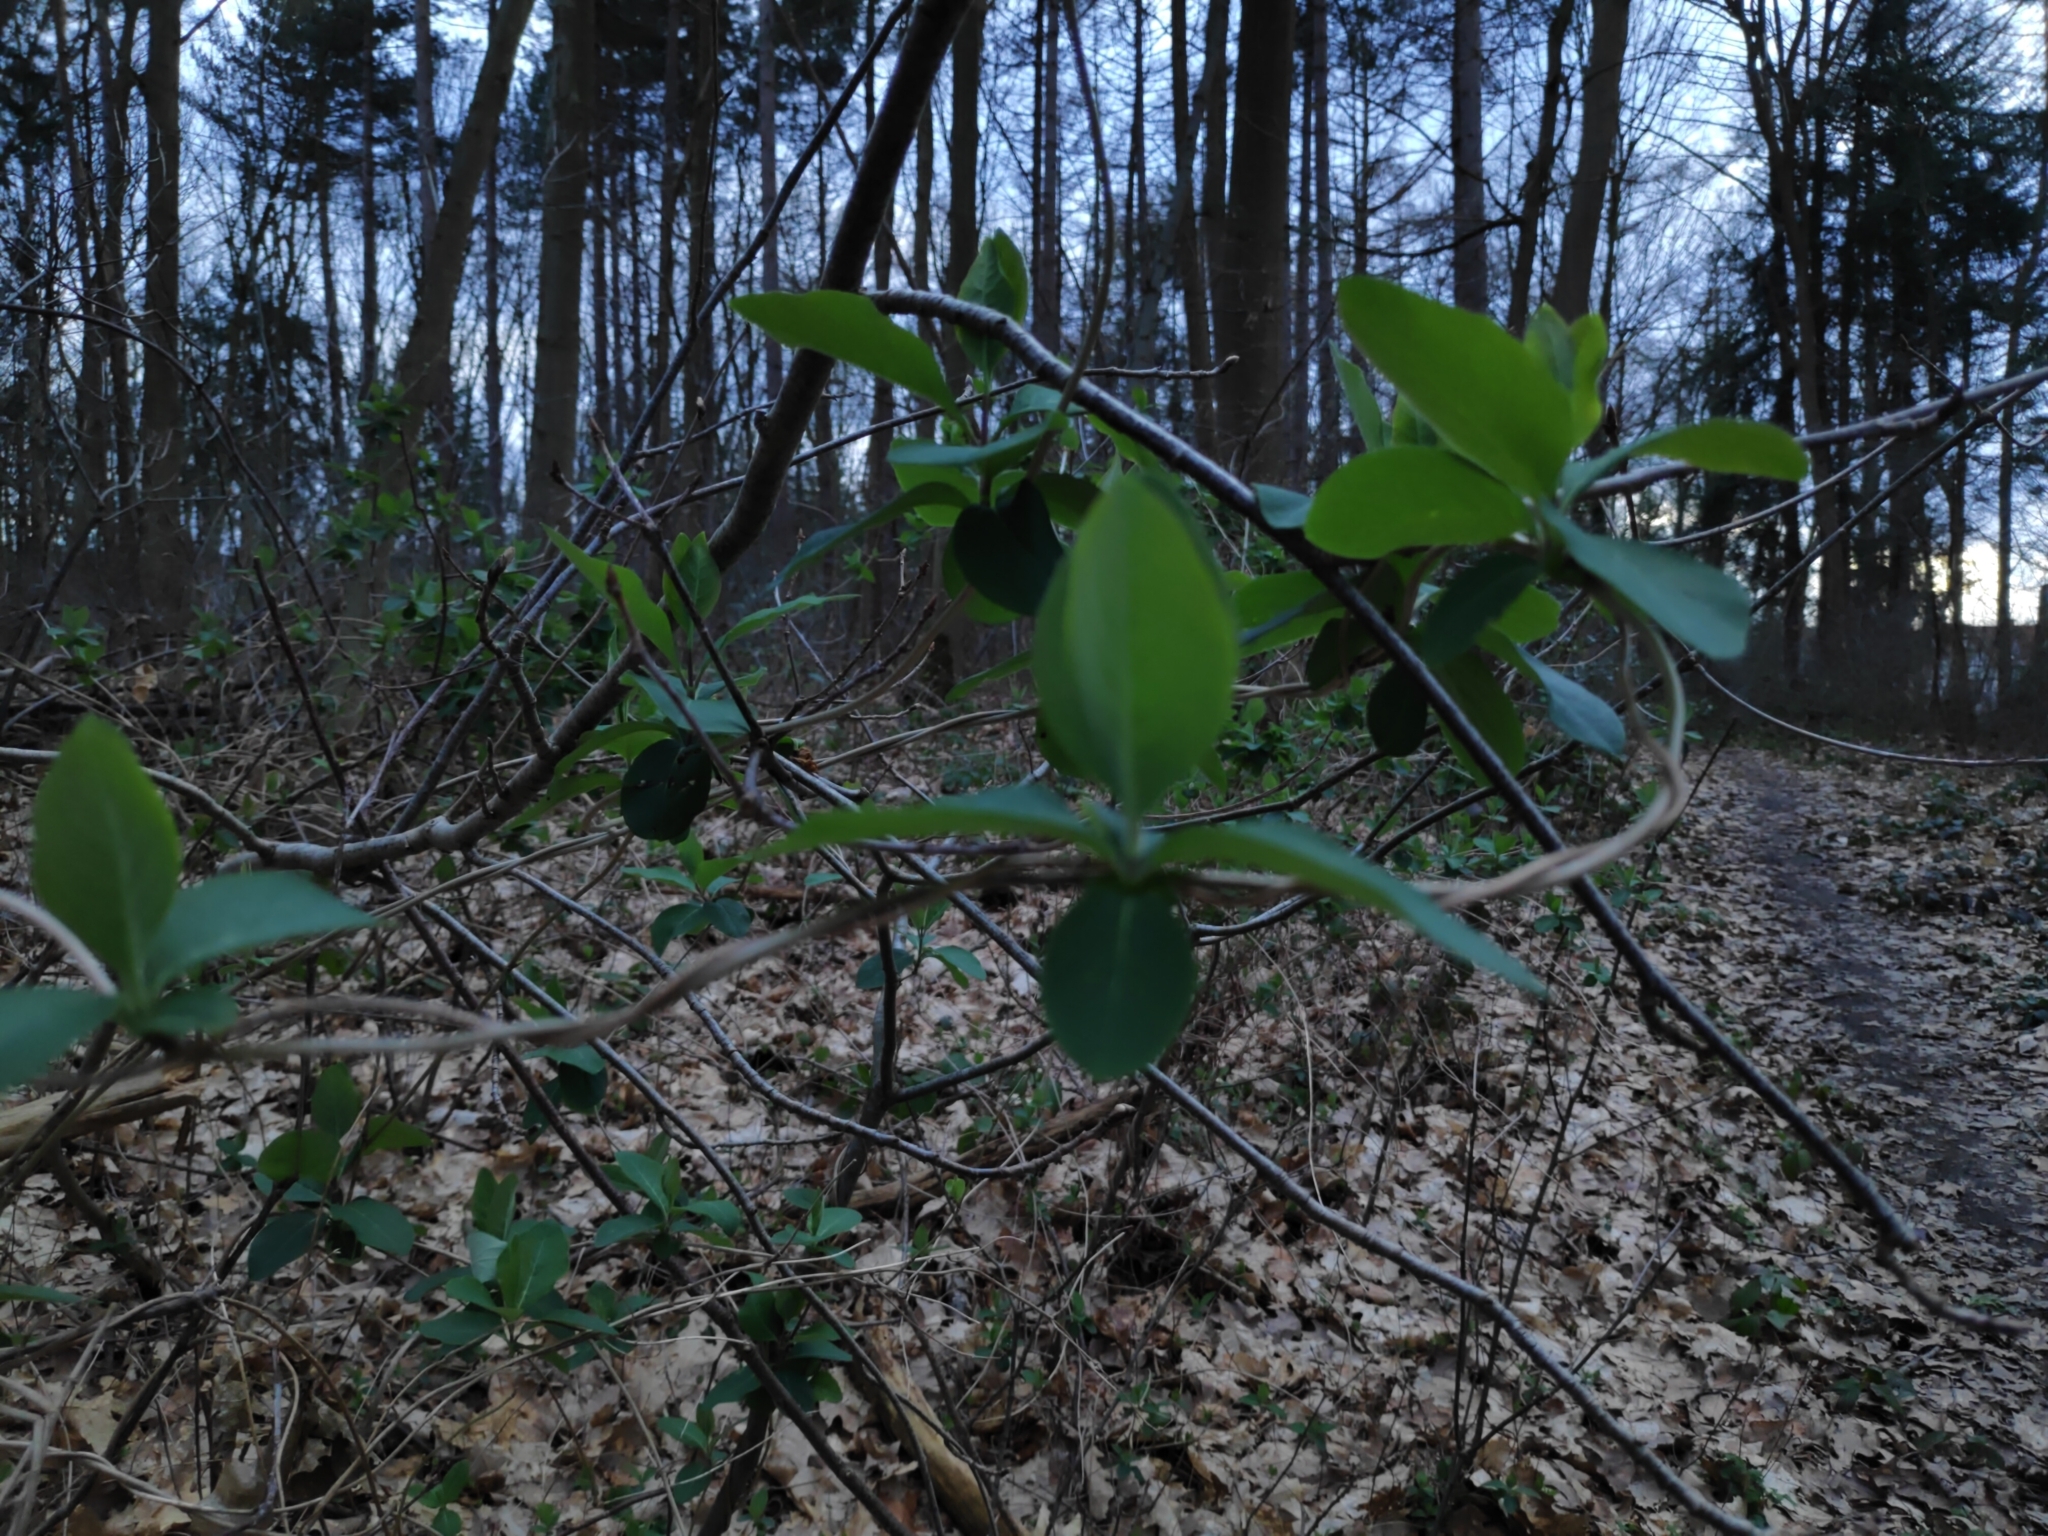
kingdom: Plantae
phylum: Tracheophyta
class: Magnoliopsida
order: Dipsacales
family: Caprifoliaceae
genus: Lonicera
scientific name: Lonicera periclymenum
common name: European honeysuckle
